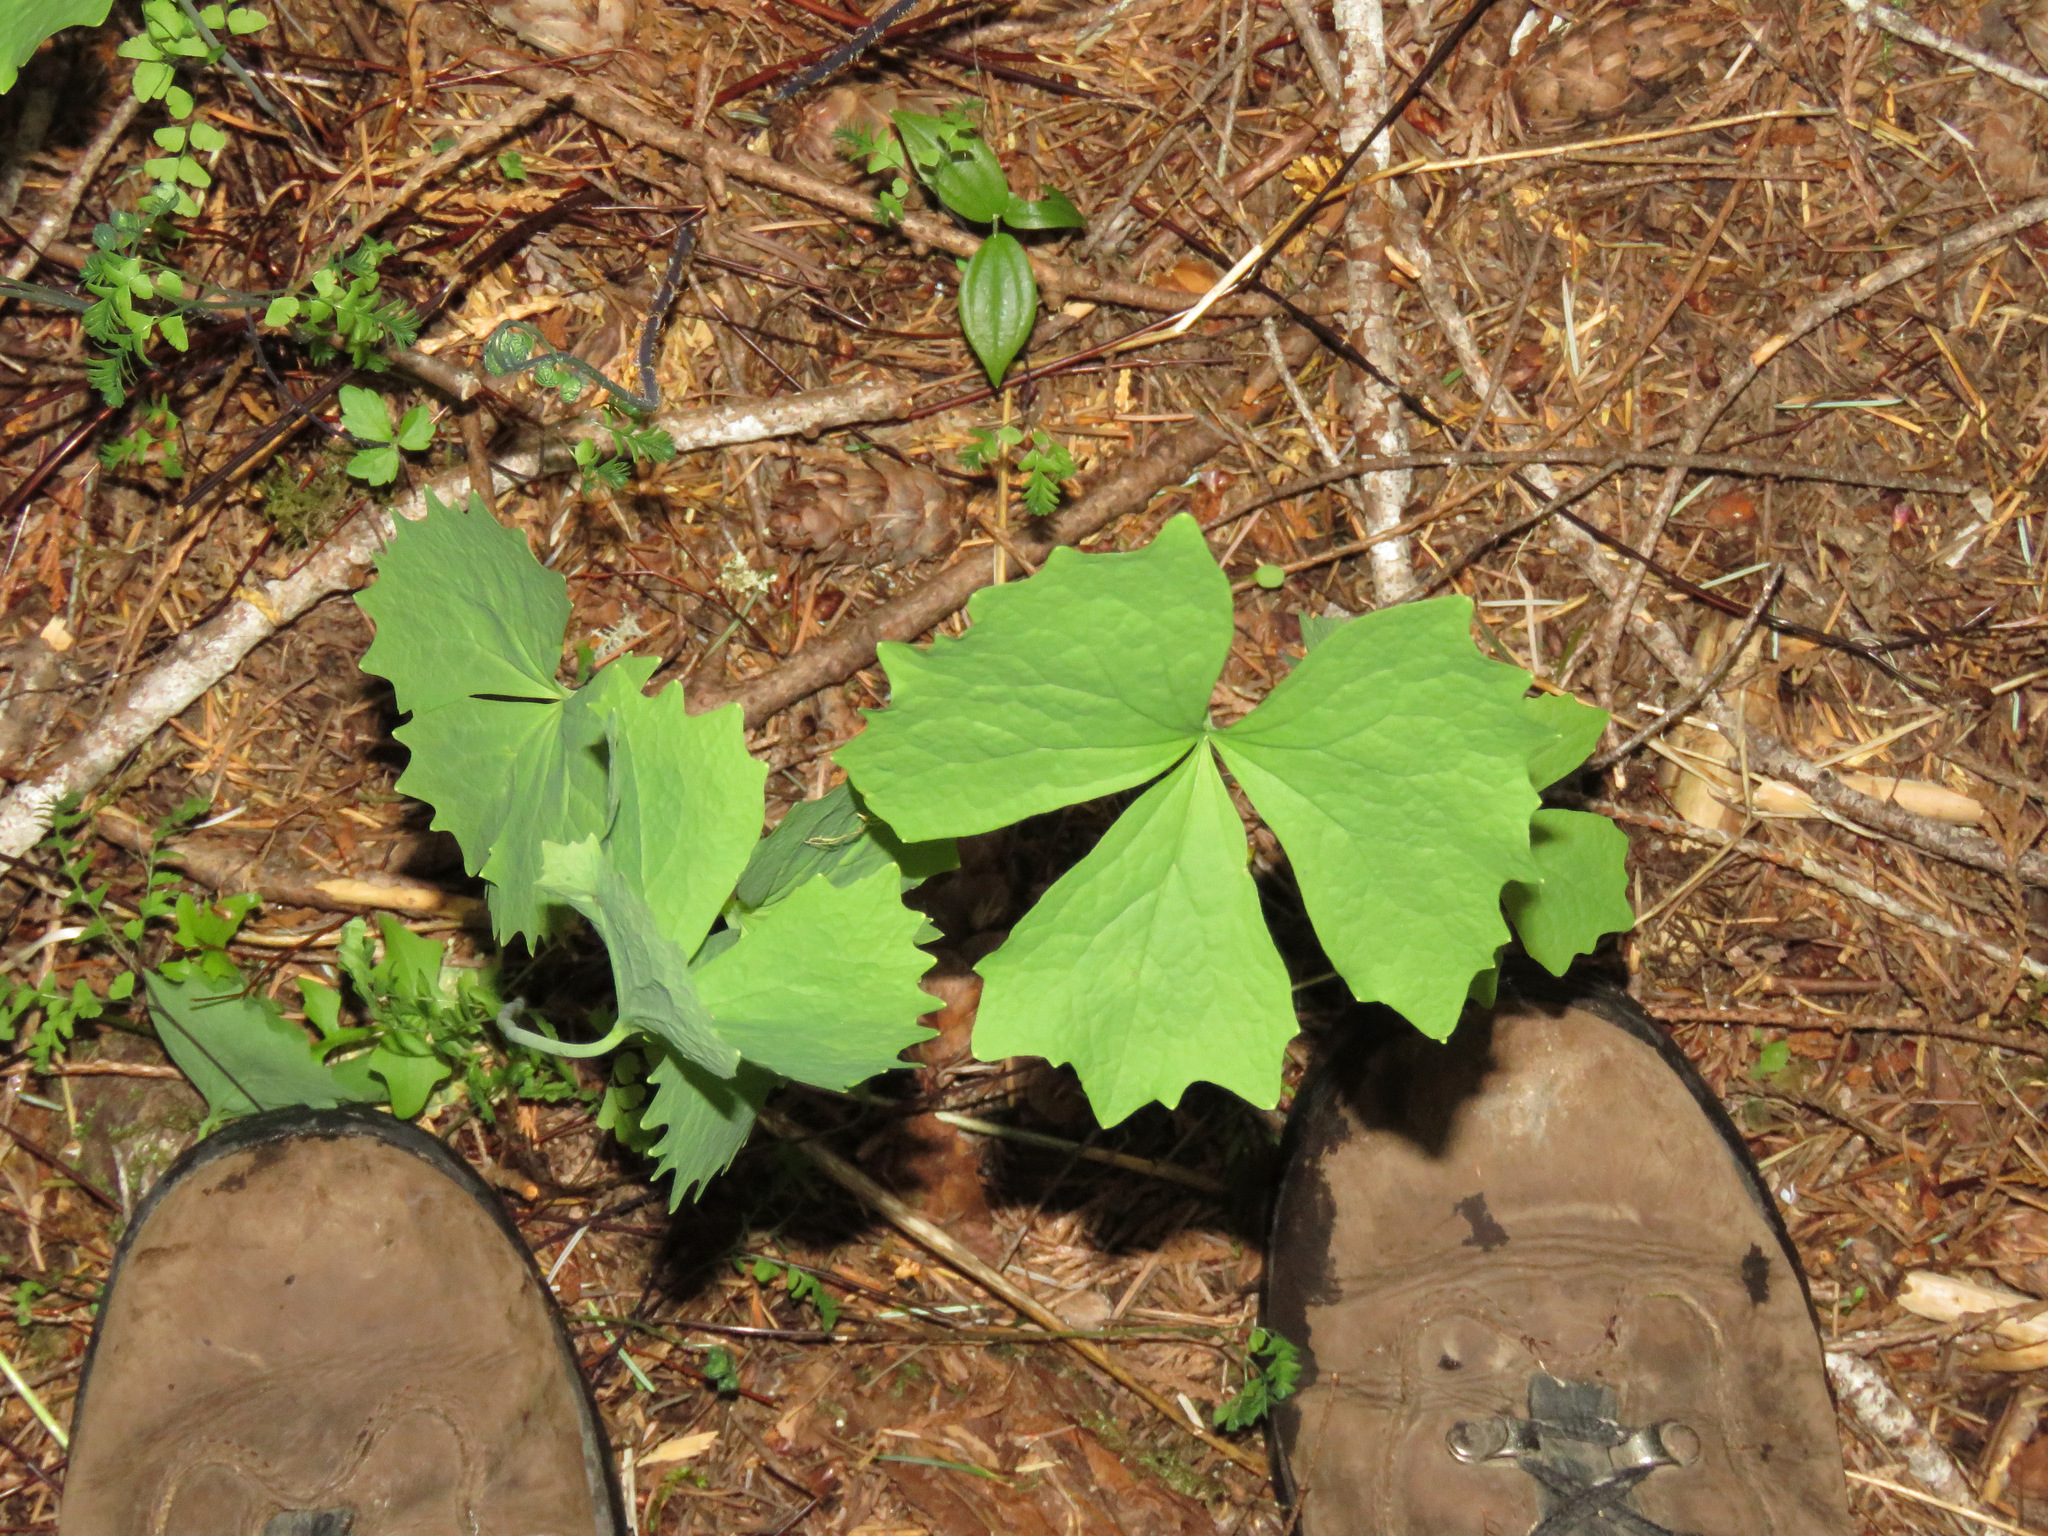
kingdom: Plantae
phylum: Tracheophyta
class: Magnoliopsida
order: Ranunculales
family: Berberidaceae
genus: Achlys
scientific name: Achlys triphylla
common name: Vanilla-leaf
